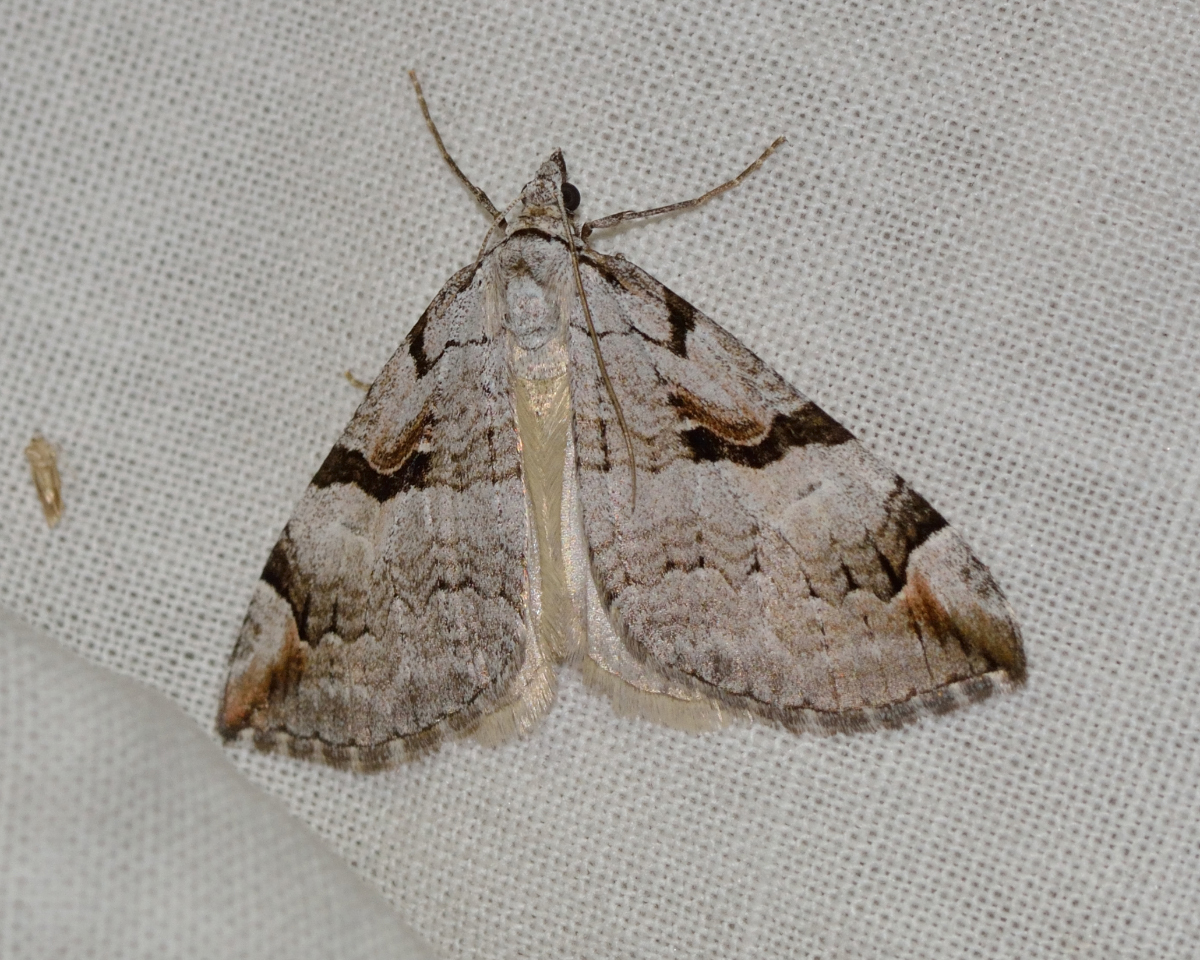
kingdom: Animalia
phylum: Arthropoda
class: Insecta
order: Lepidoptera
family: Geometridae
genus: Aplocera
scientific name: Aplocera praeformata
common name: Purple treble-bar
